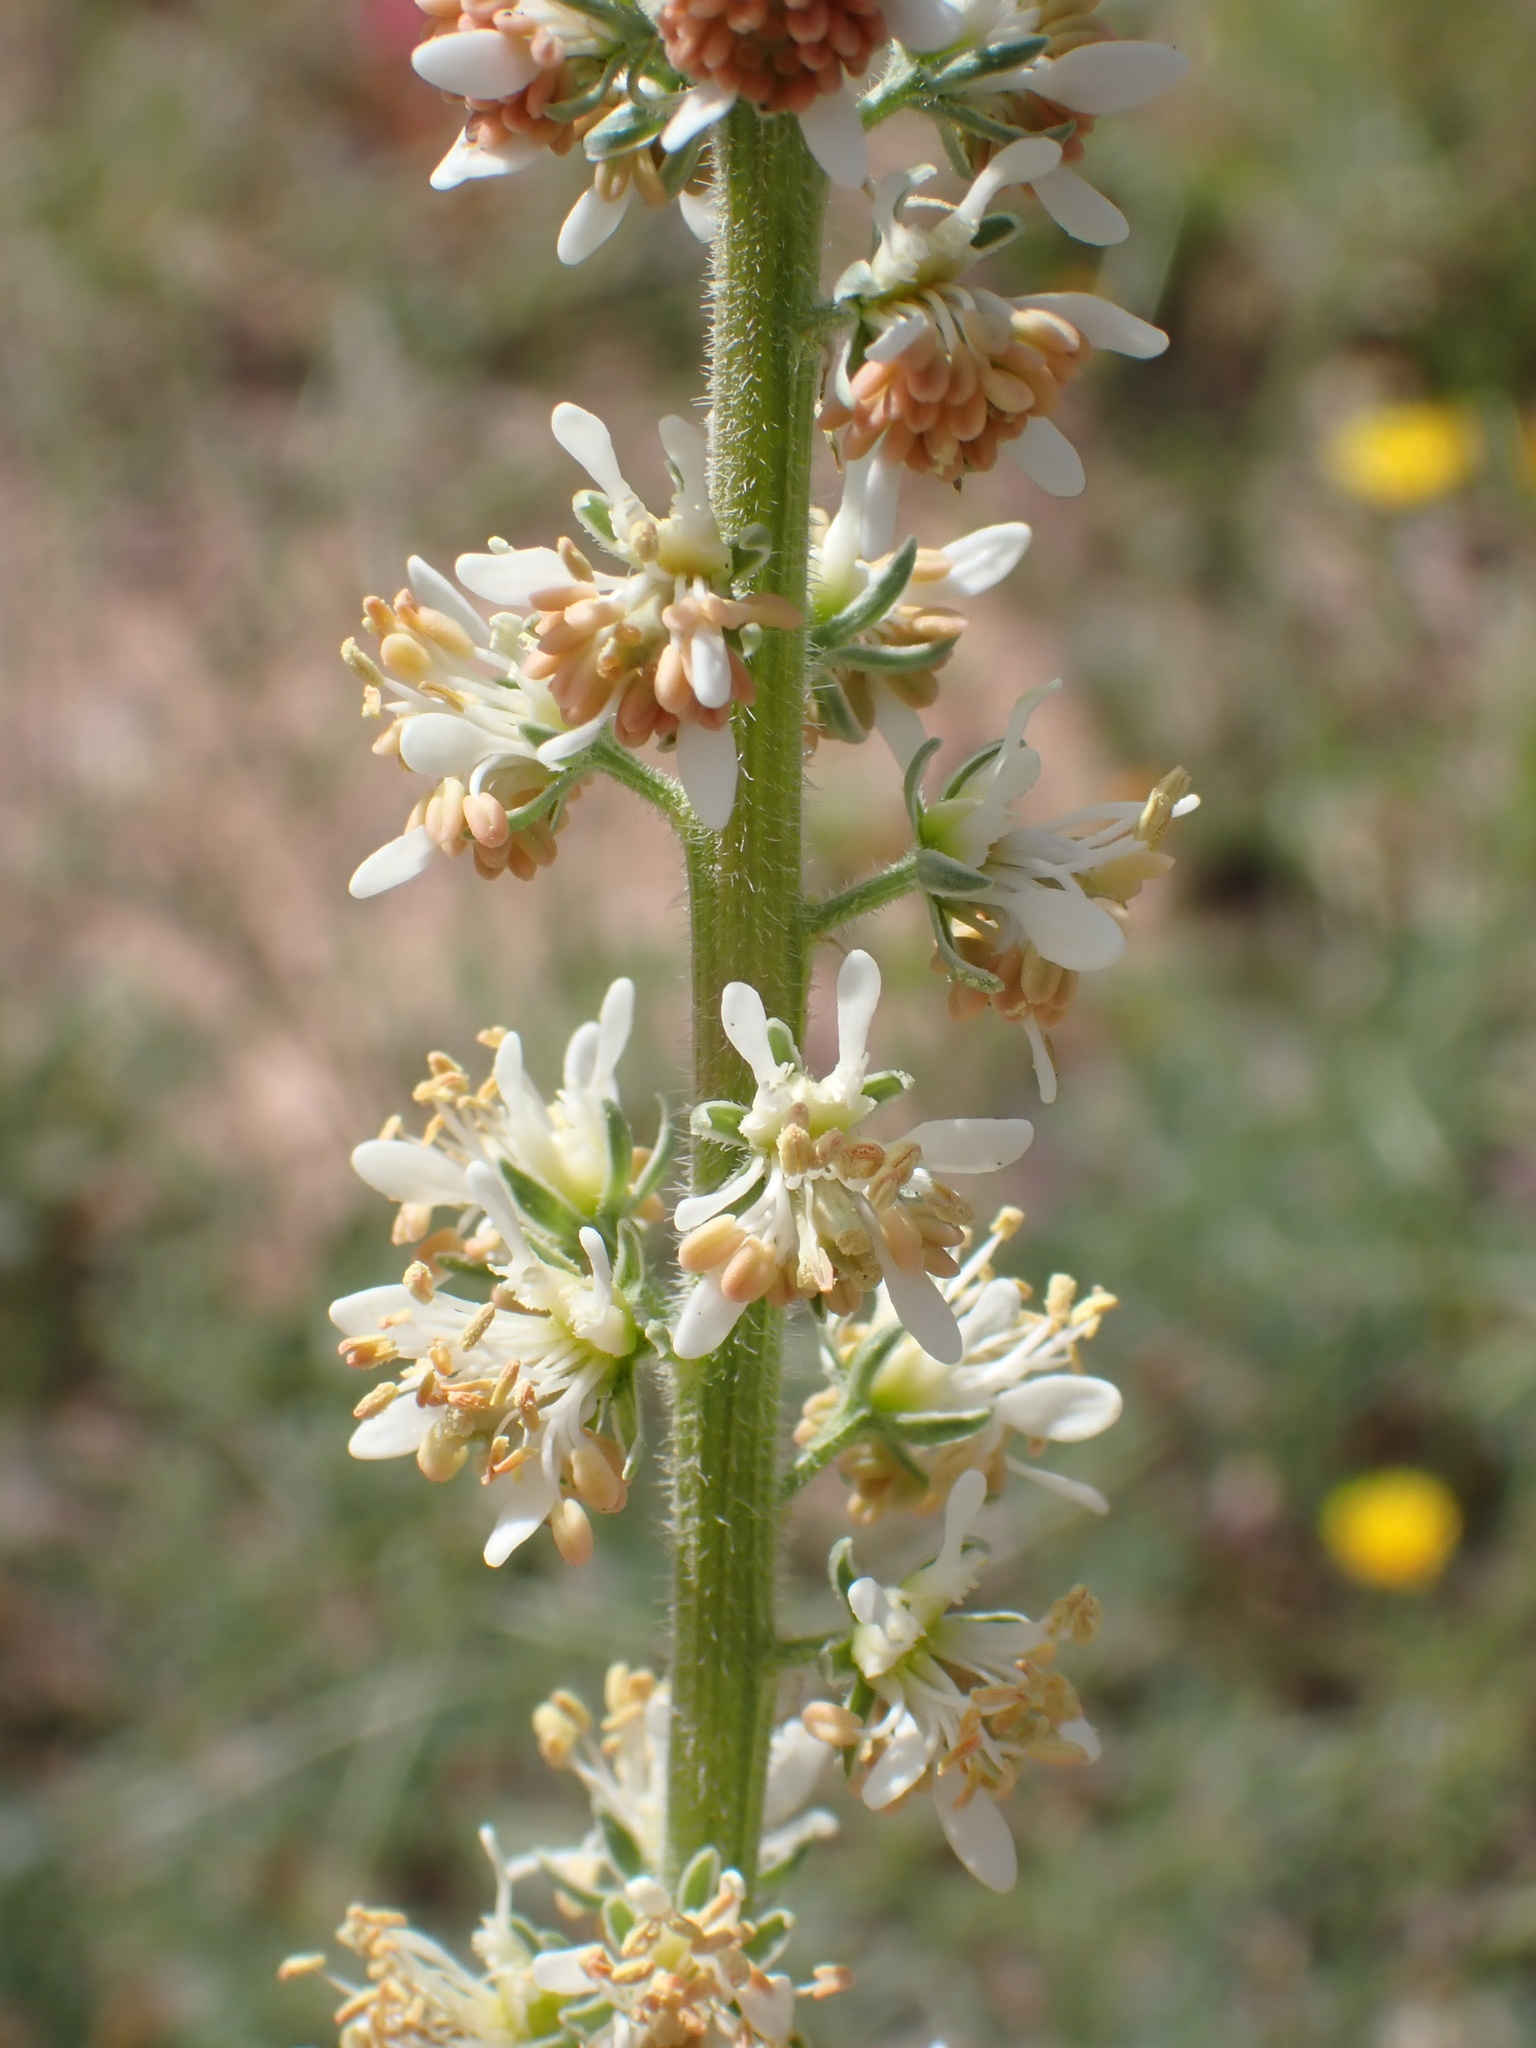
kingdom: Plantae
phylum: Tracheophyta
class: Magnoliopsida
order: Brassicales
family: Resedaceae
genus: Reseda
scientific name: Reseda villosa
